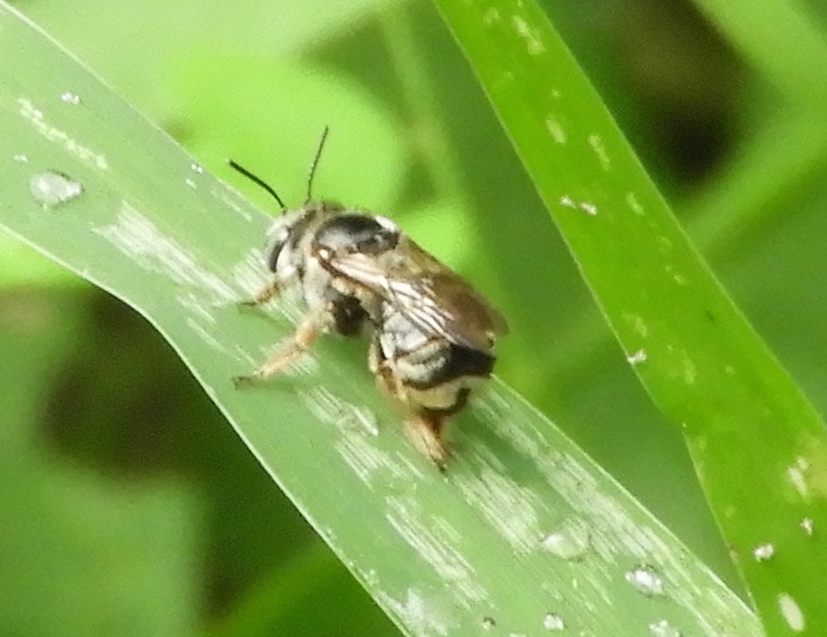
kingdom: Animalia
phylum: Arthropoda
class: Insecta
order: Hymenoptera
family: Apidae
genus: Apidae
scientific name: Apidae
